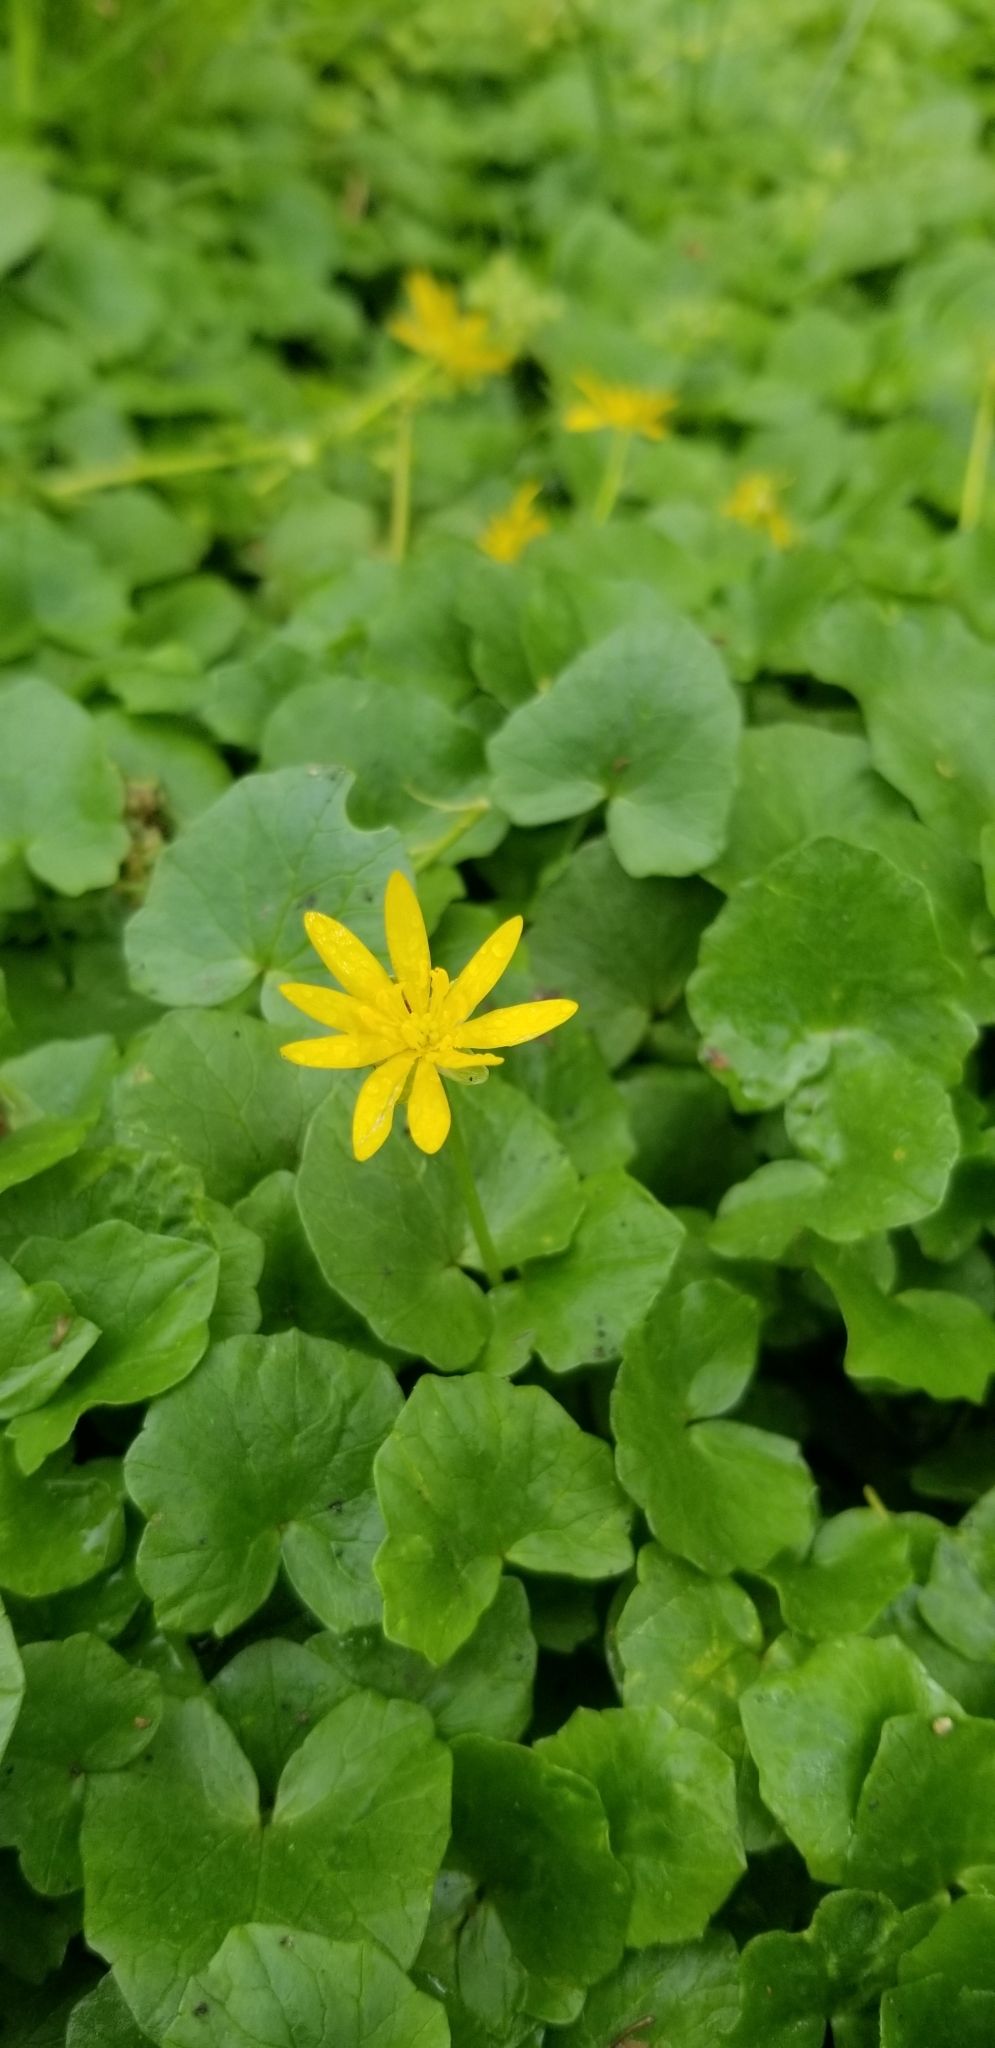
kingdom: Plantae
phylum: Tracheophyta
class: Magnoliopsida
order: Ranunculales
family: Ranunculaceae
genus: Ficaria
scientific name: Ficaria verna
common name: Lesser celandine
